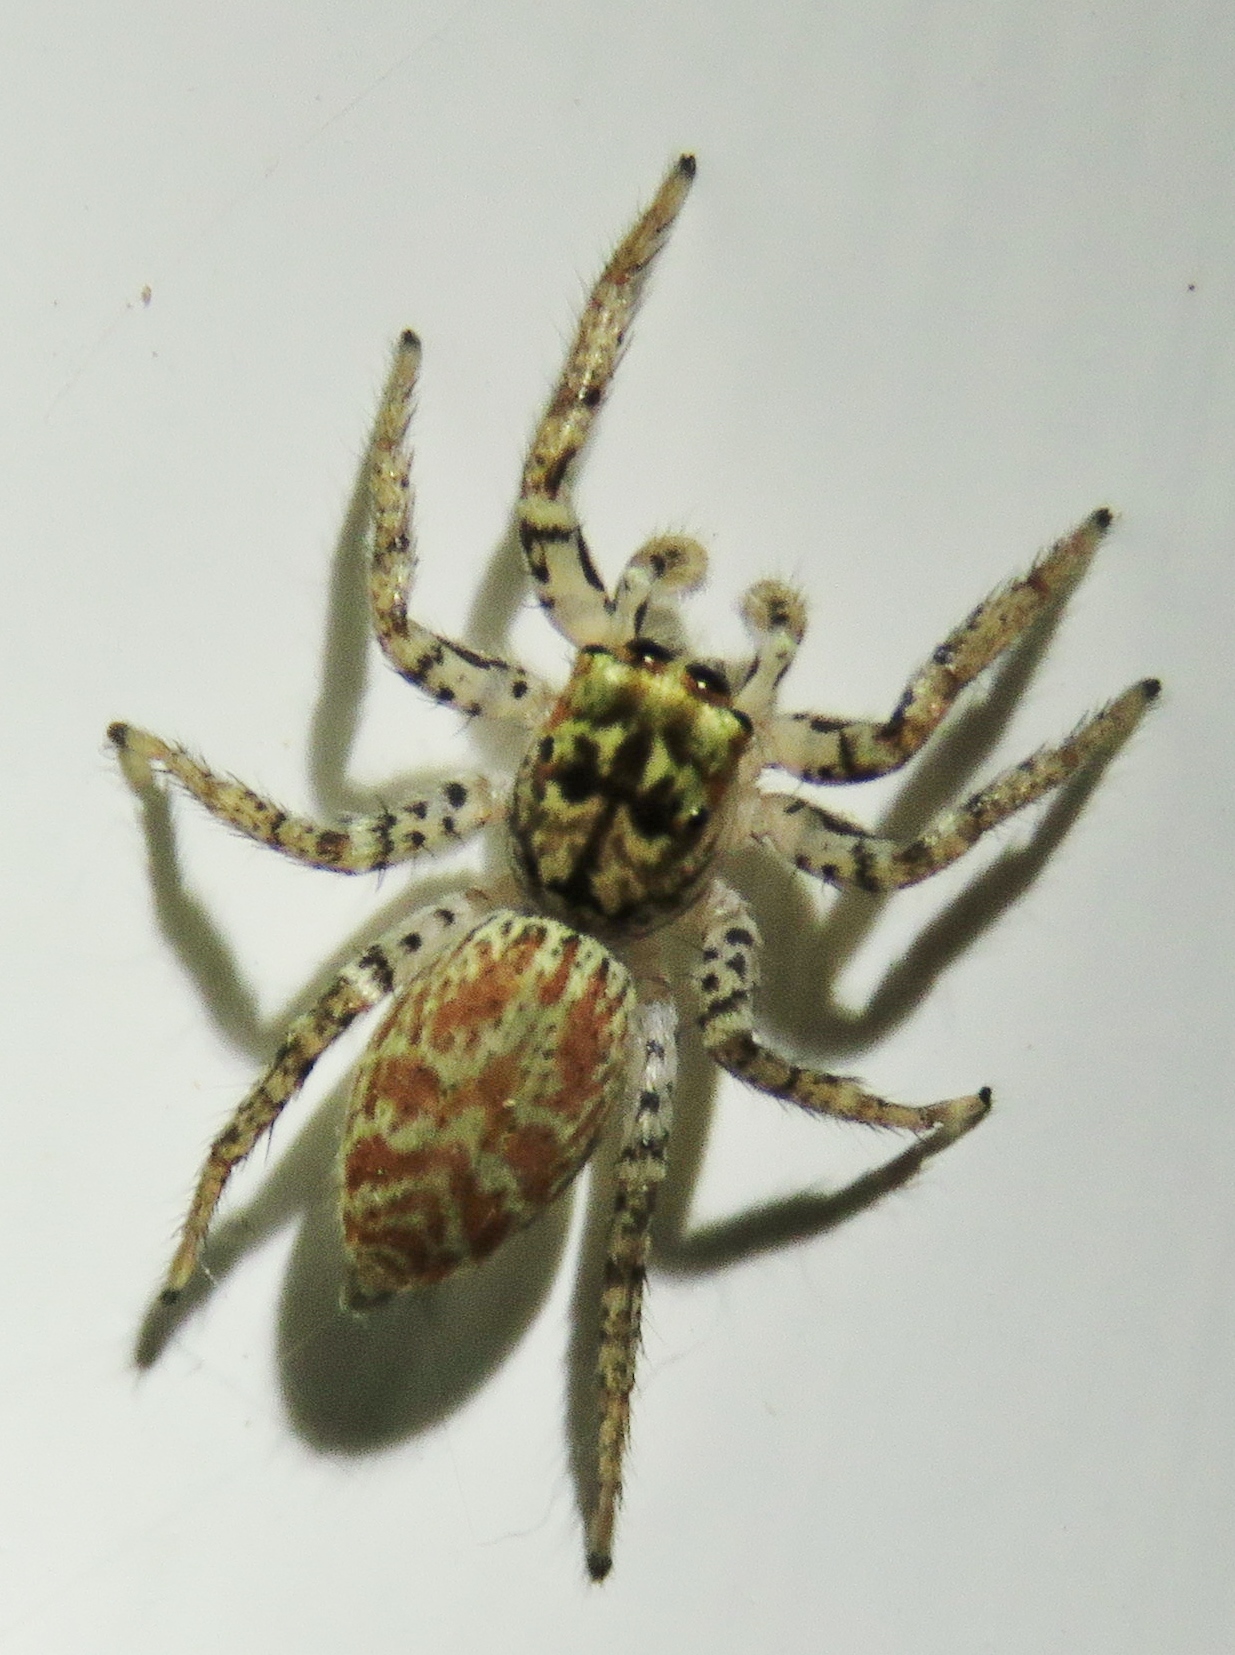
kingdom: Animalia
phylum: Arthropoda
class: Arachnida
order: Araneae
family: Salticidae
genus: Maevia
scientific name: Maevia inclemens
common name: Dimorphic jumper
